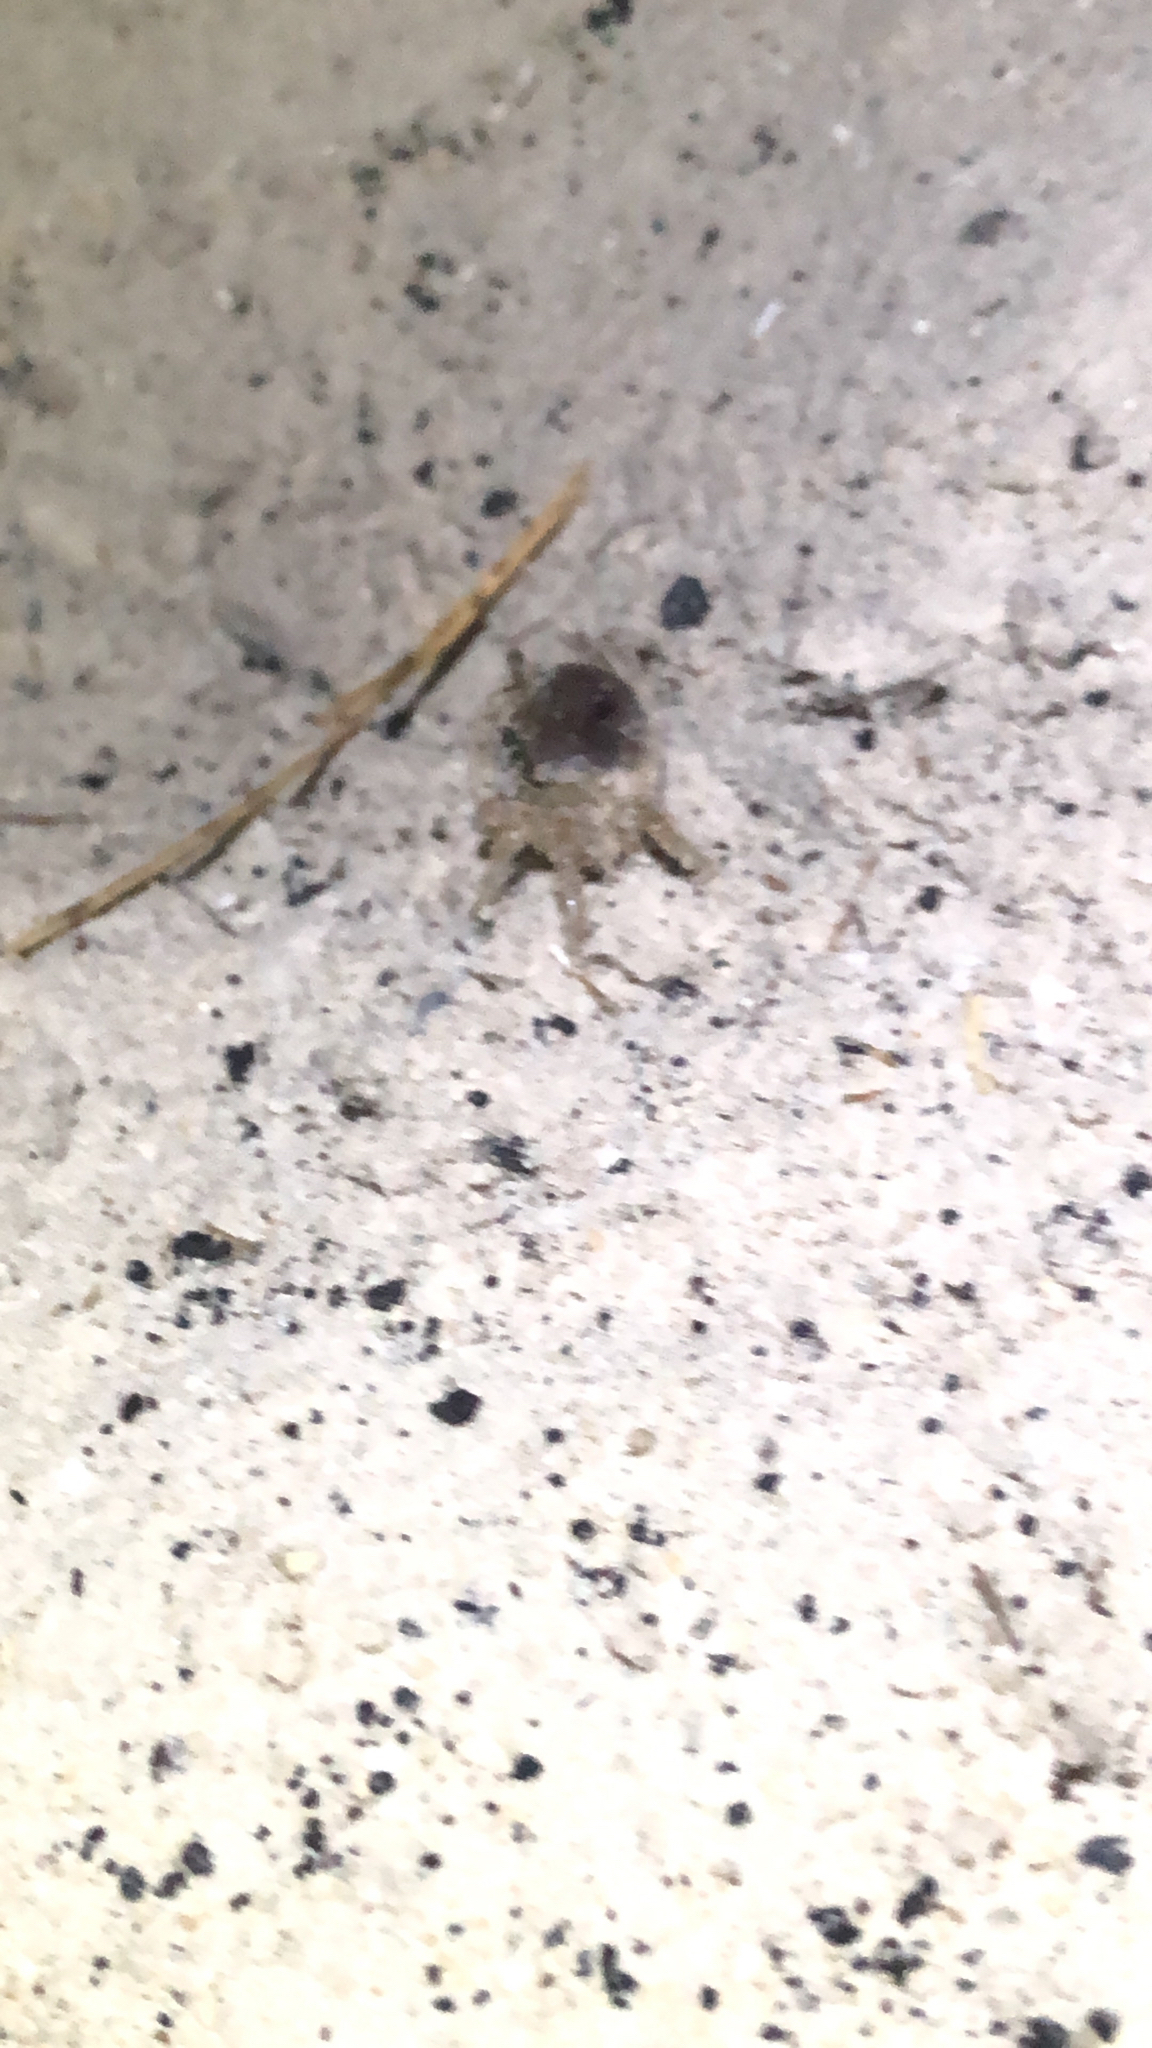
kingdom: Animalia
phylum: Arthropoda
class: Malacostraca
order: Decapoda
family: Ocypodidae
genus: Ocypode
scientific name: Ocypode quadrata
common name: Ghost crab
